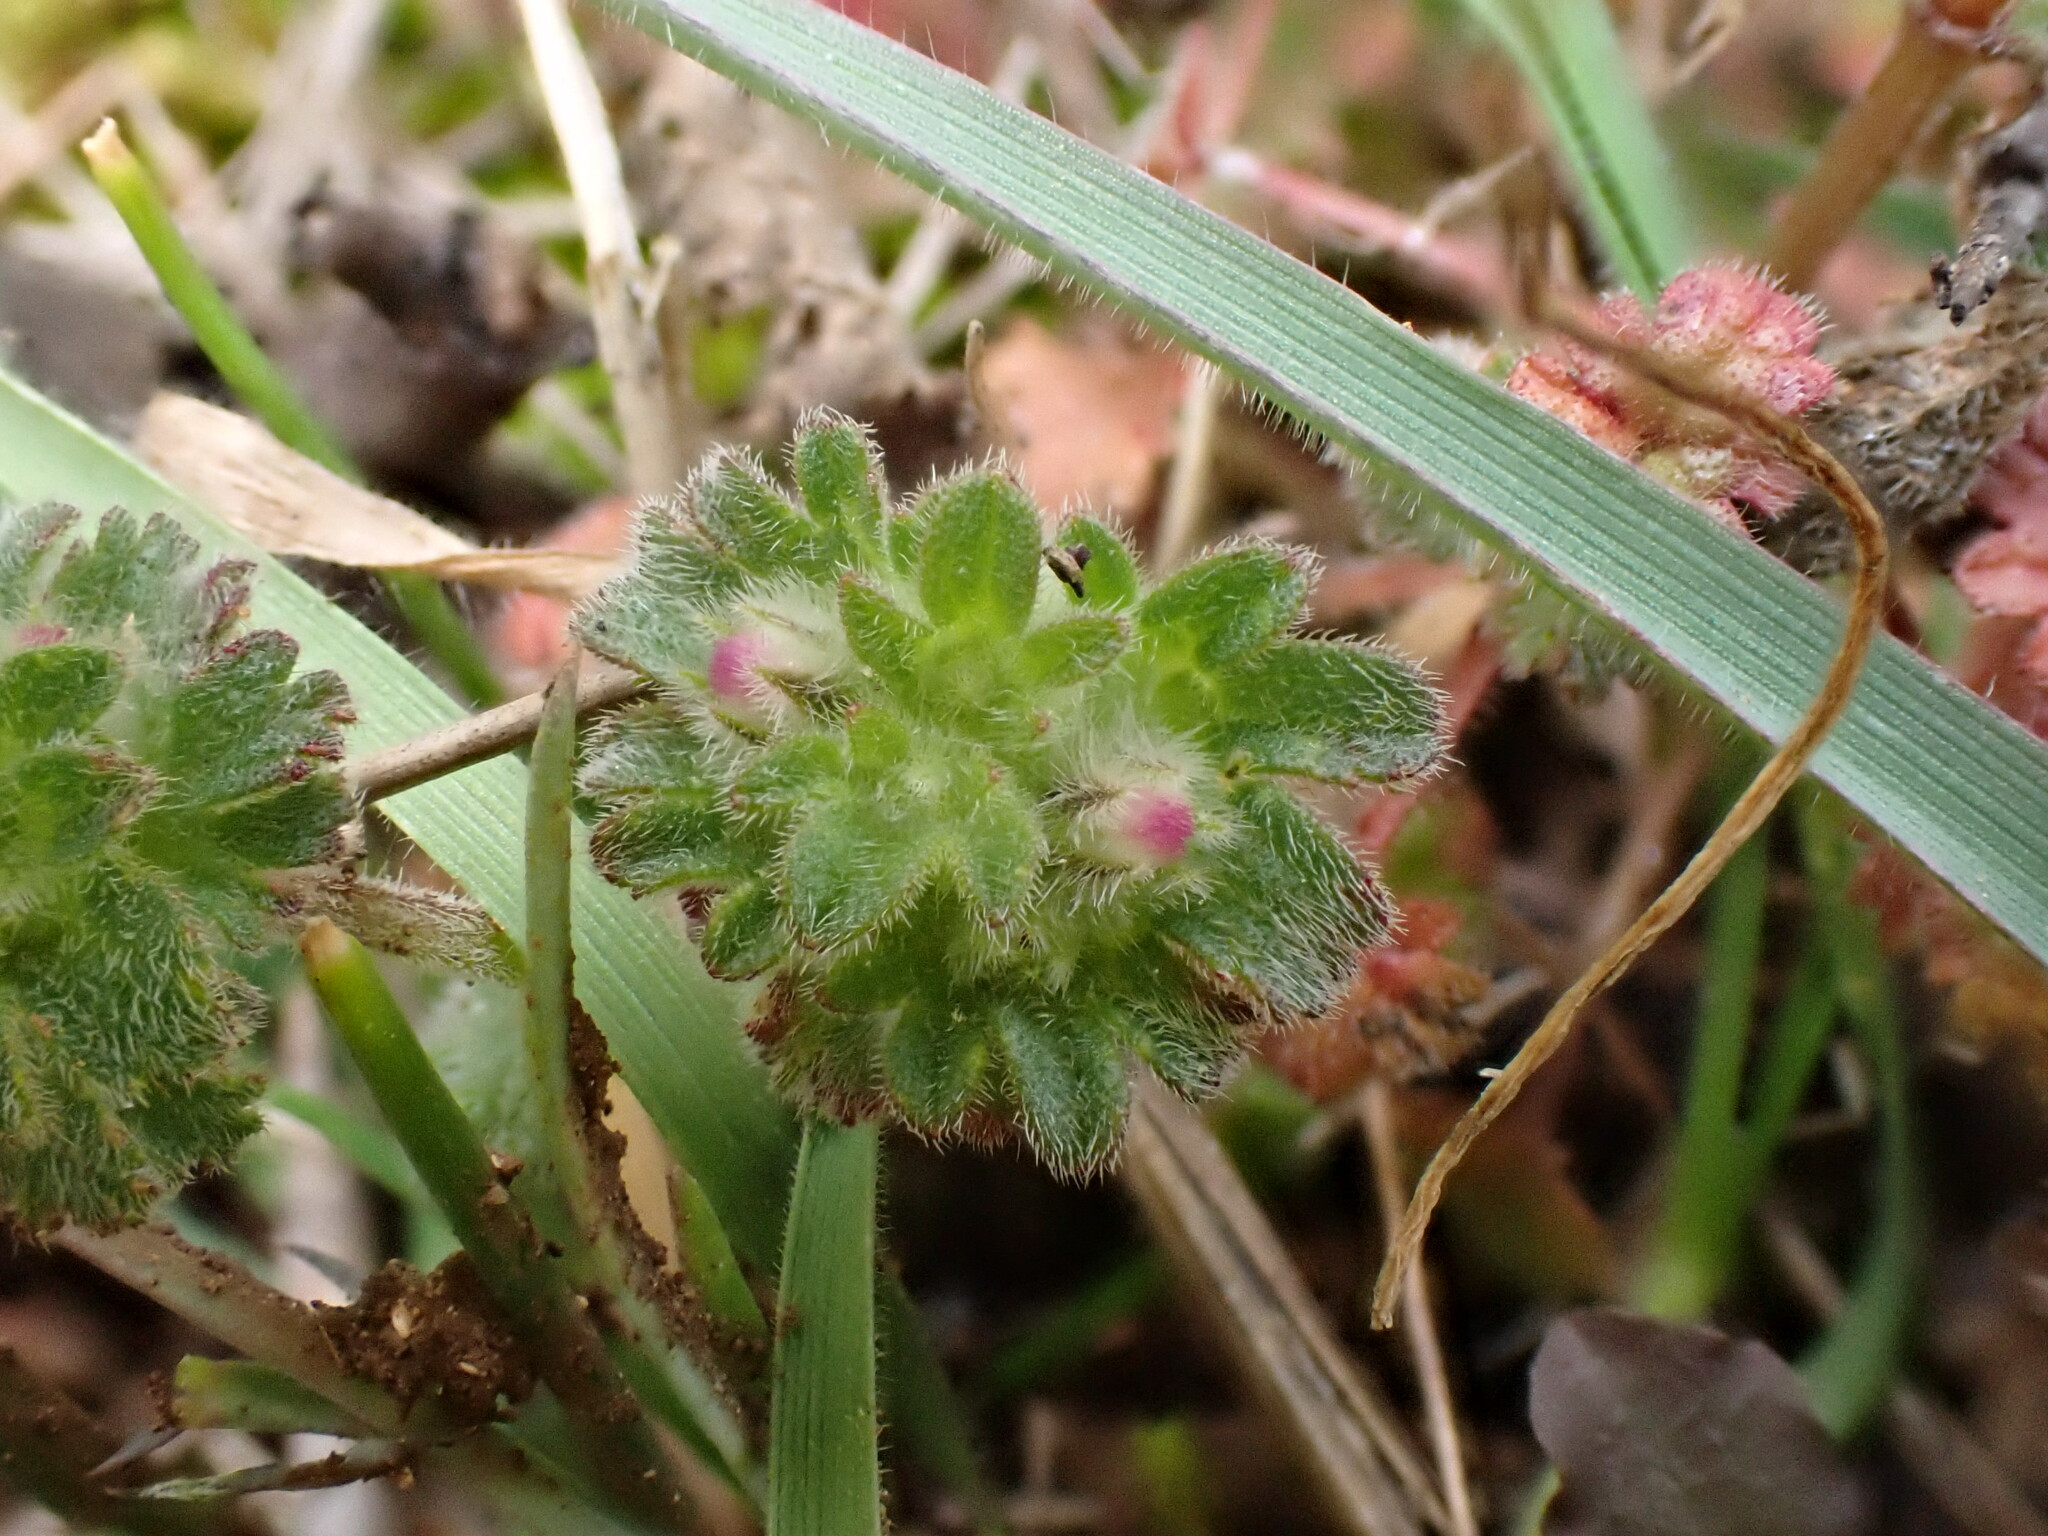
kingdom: Plantae
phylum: Tracheophyta
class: Magnoliopsida
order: Lamiales
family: Lamiaceae
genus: Lamium
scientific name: Lamium amplexicaule
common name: Henbit dead-nettle
